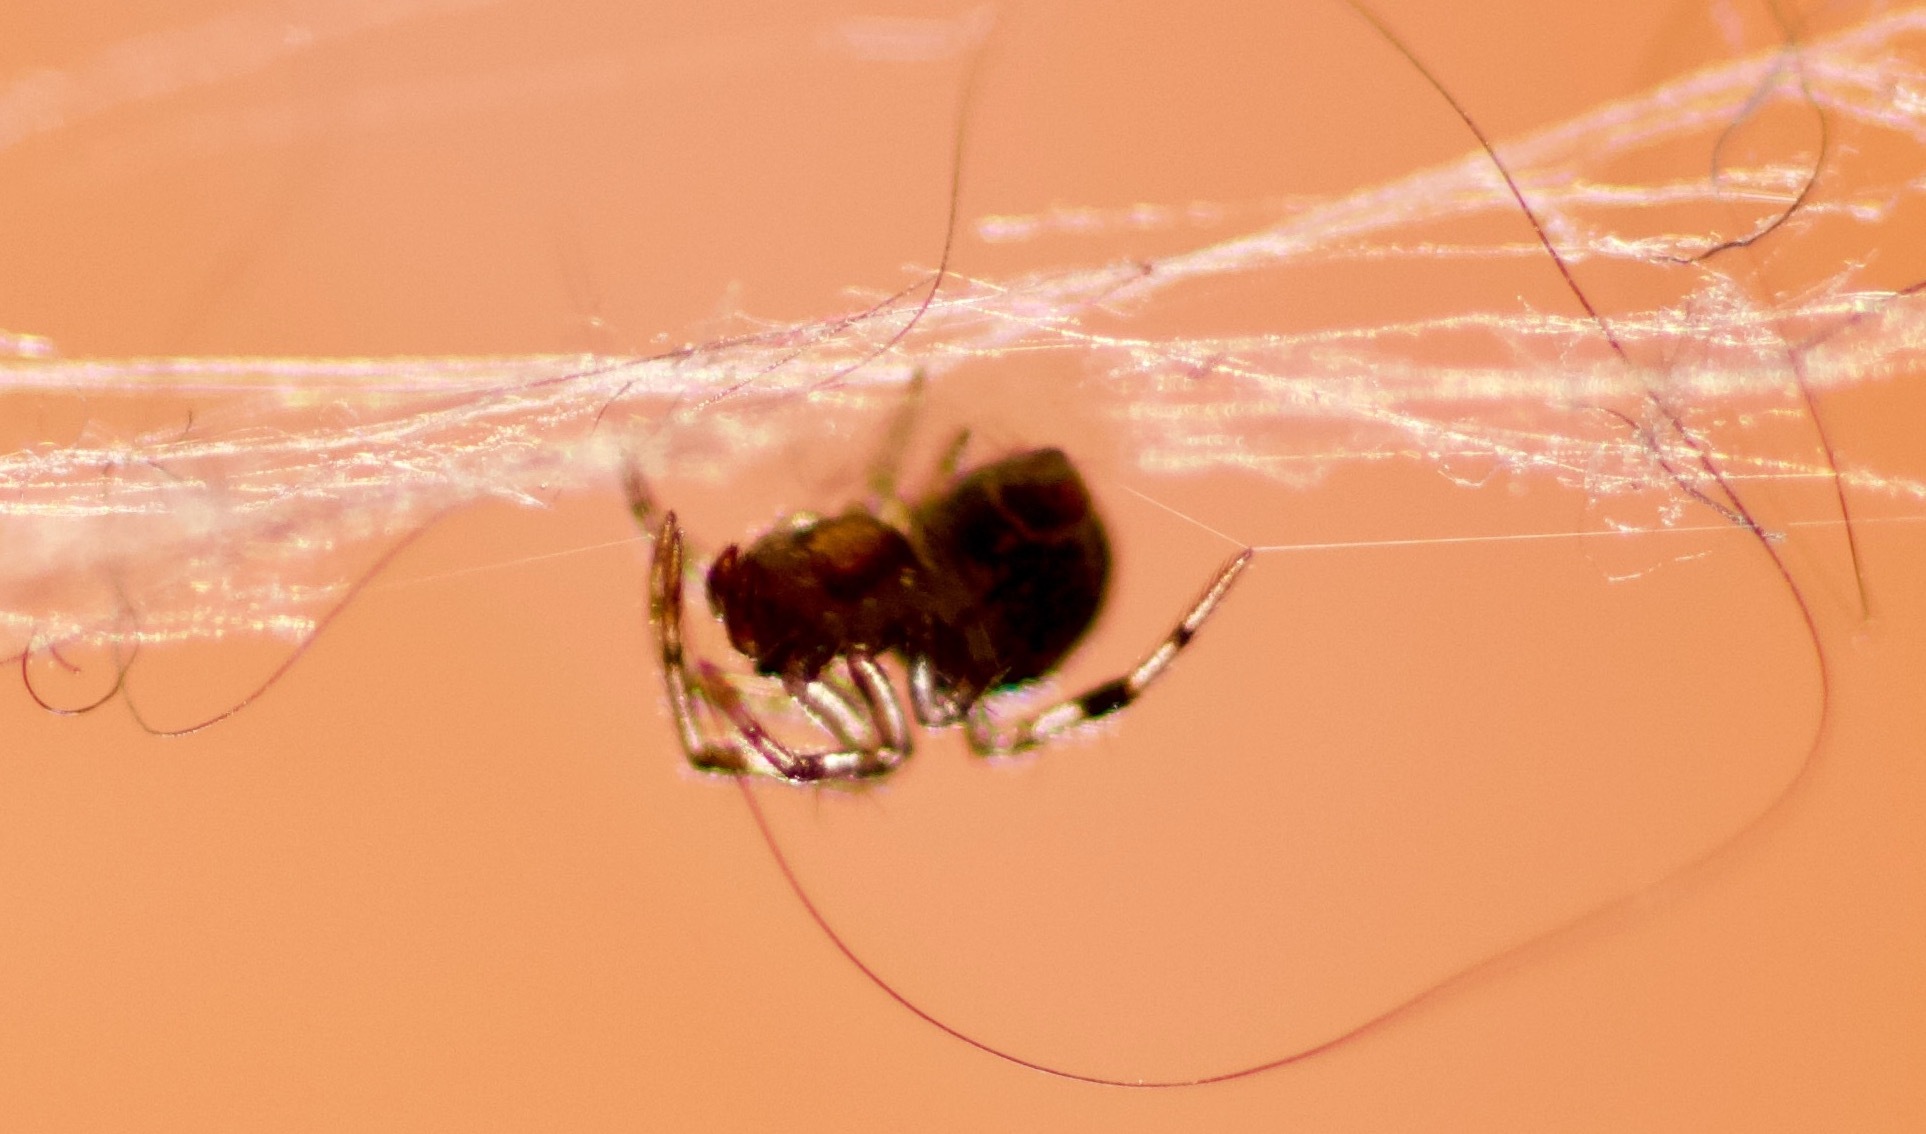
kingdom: Animalia
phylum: Arthropoda
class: Arachnida
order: Araneae
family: Theridiidae
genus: Parasteatoda
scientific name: Parasteatoda
